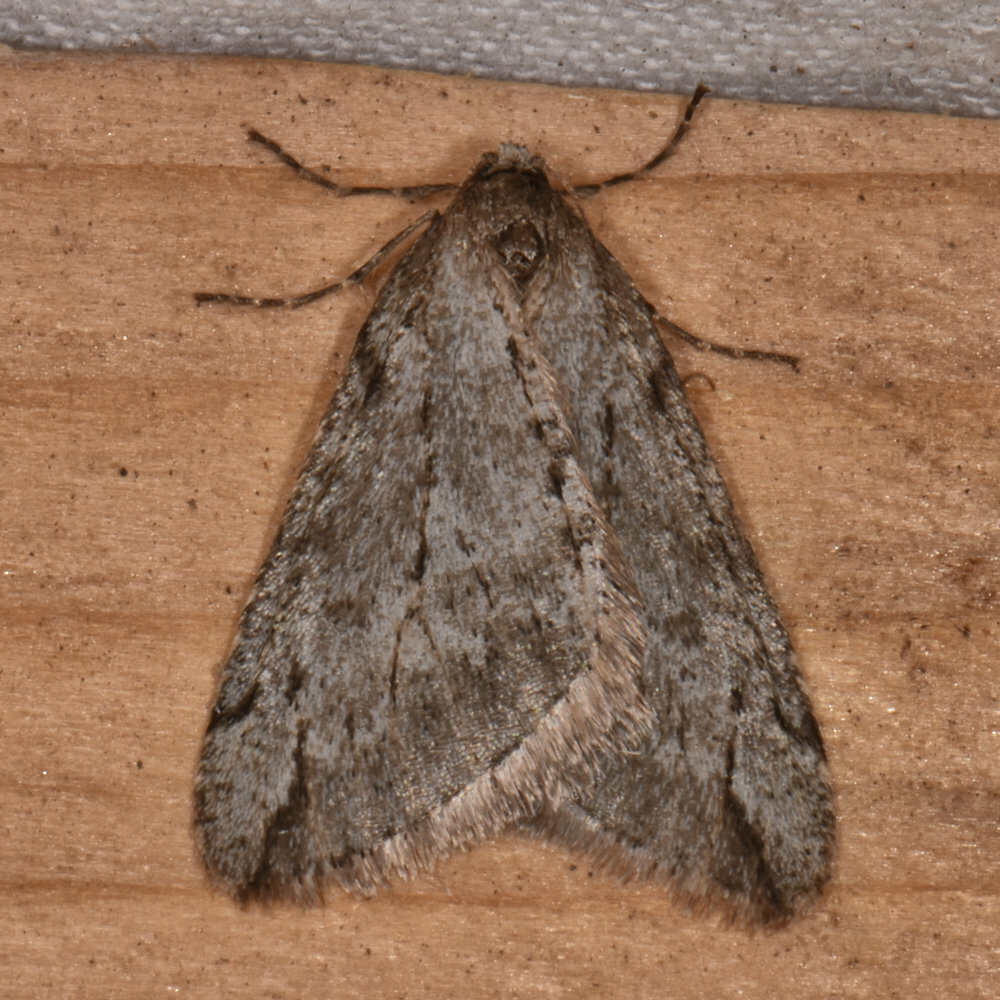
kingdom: Animalia
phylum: Arthropoda
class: Insecta
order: Lepidoptera
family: Geometridae
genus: Paleacrita
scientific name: Paleacrita vernata
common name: Spring cankerworm
